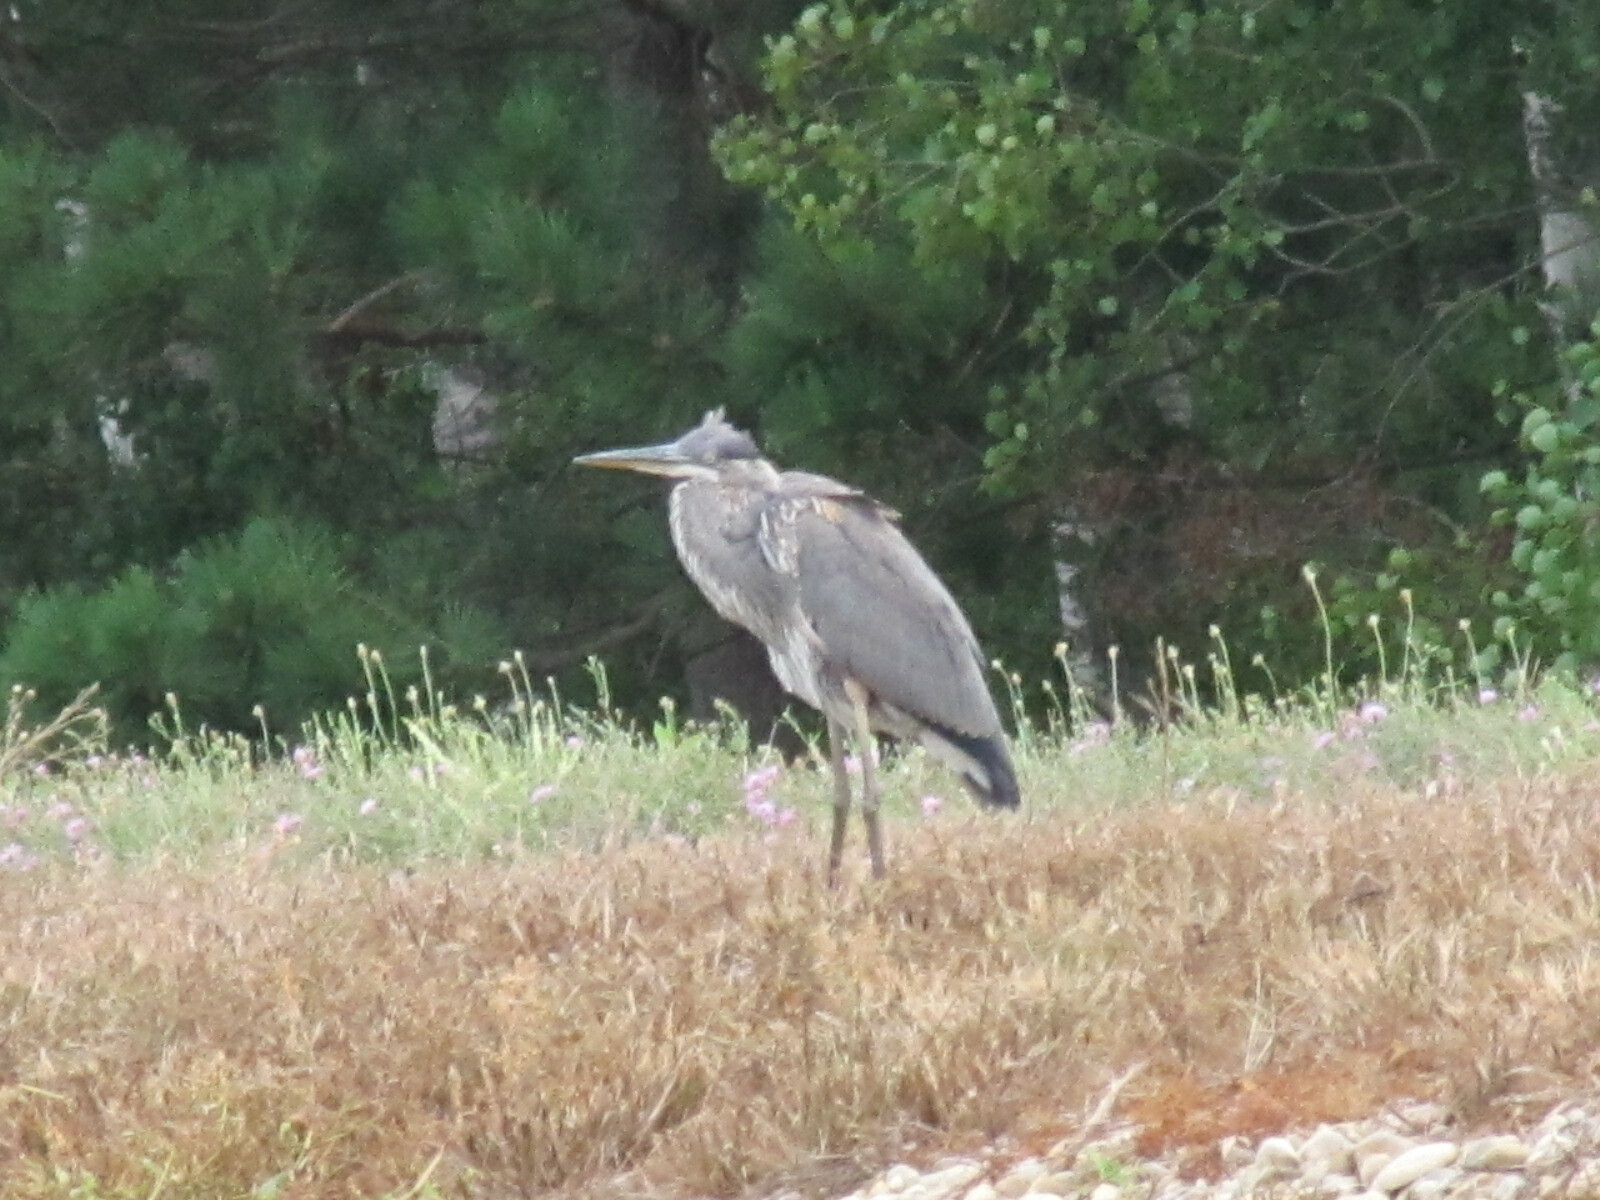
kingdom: Animalia
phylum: Chordata
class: Aves
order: Pelecaniformes
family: Ardeidae
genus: Ardea
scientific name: Ardea herodias
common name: Great blue heron
